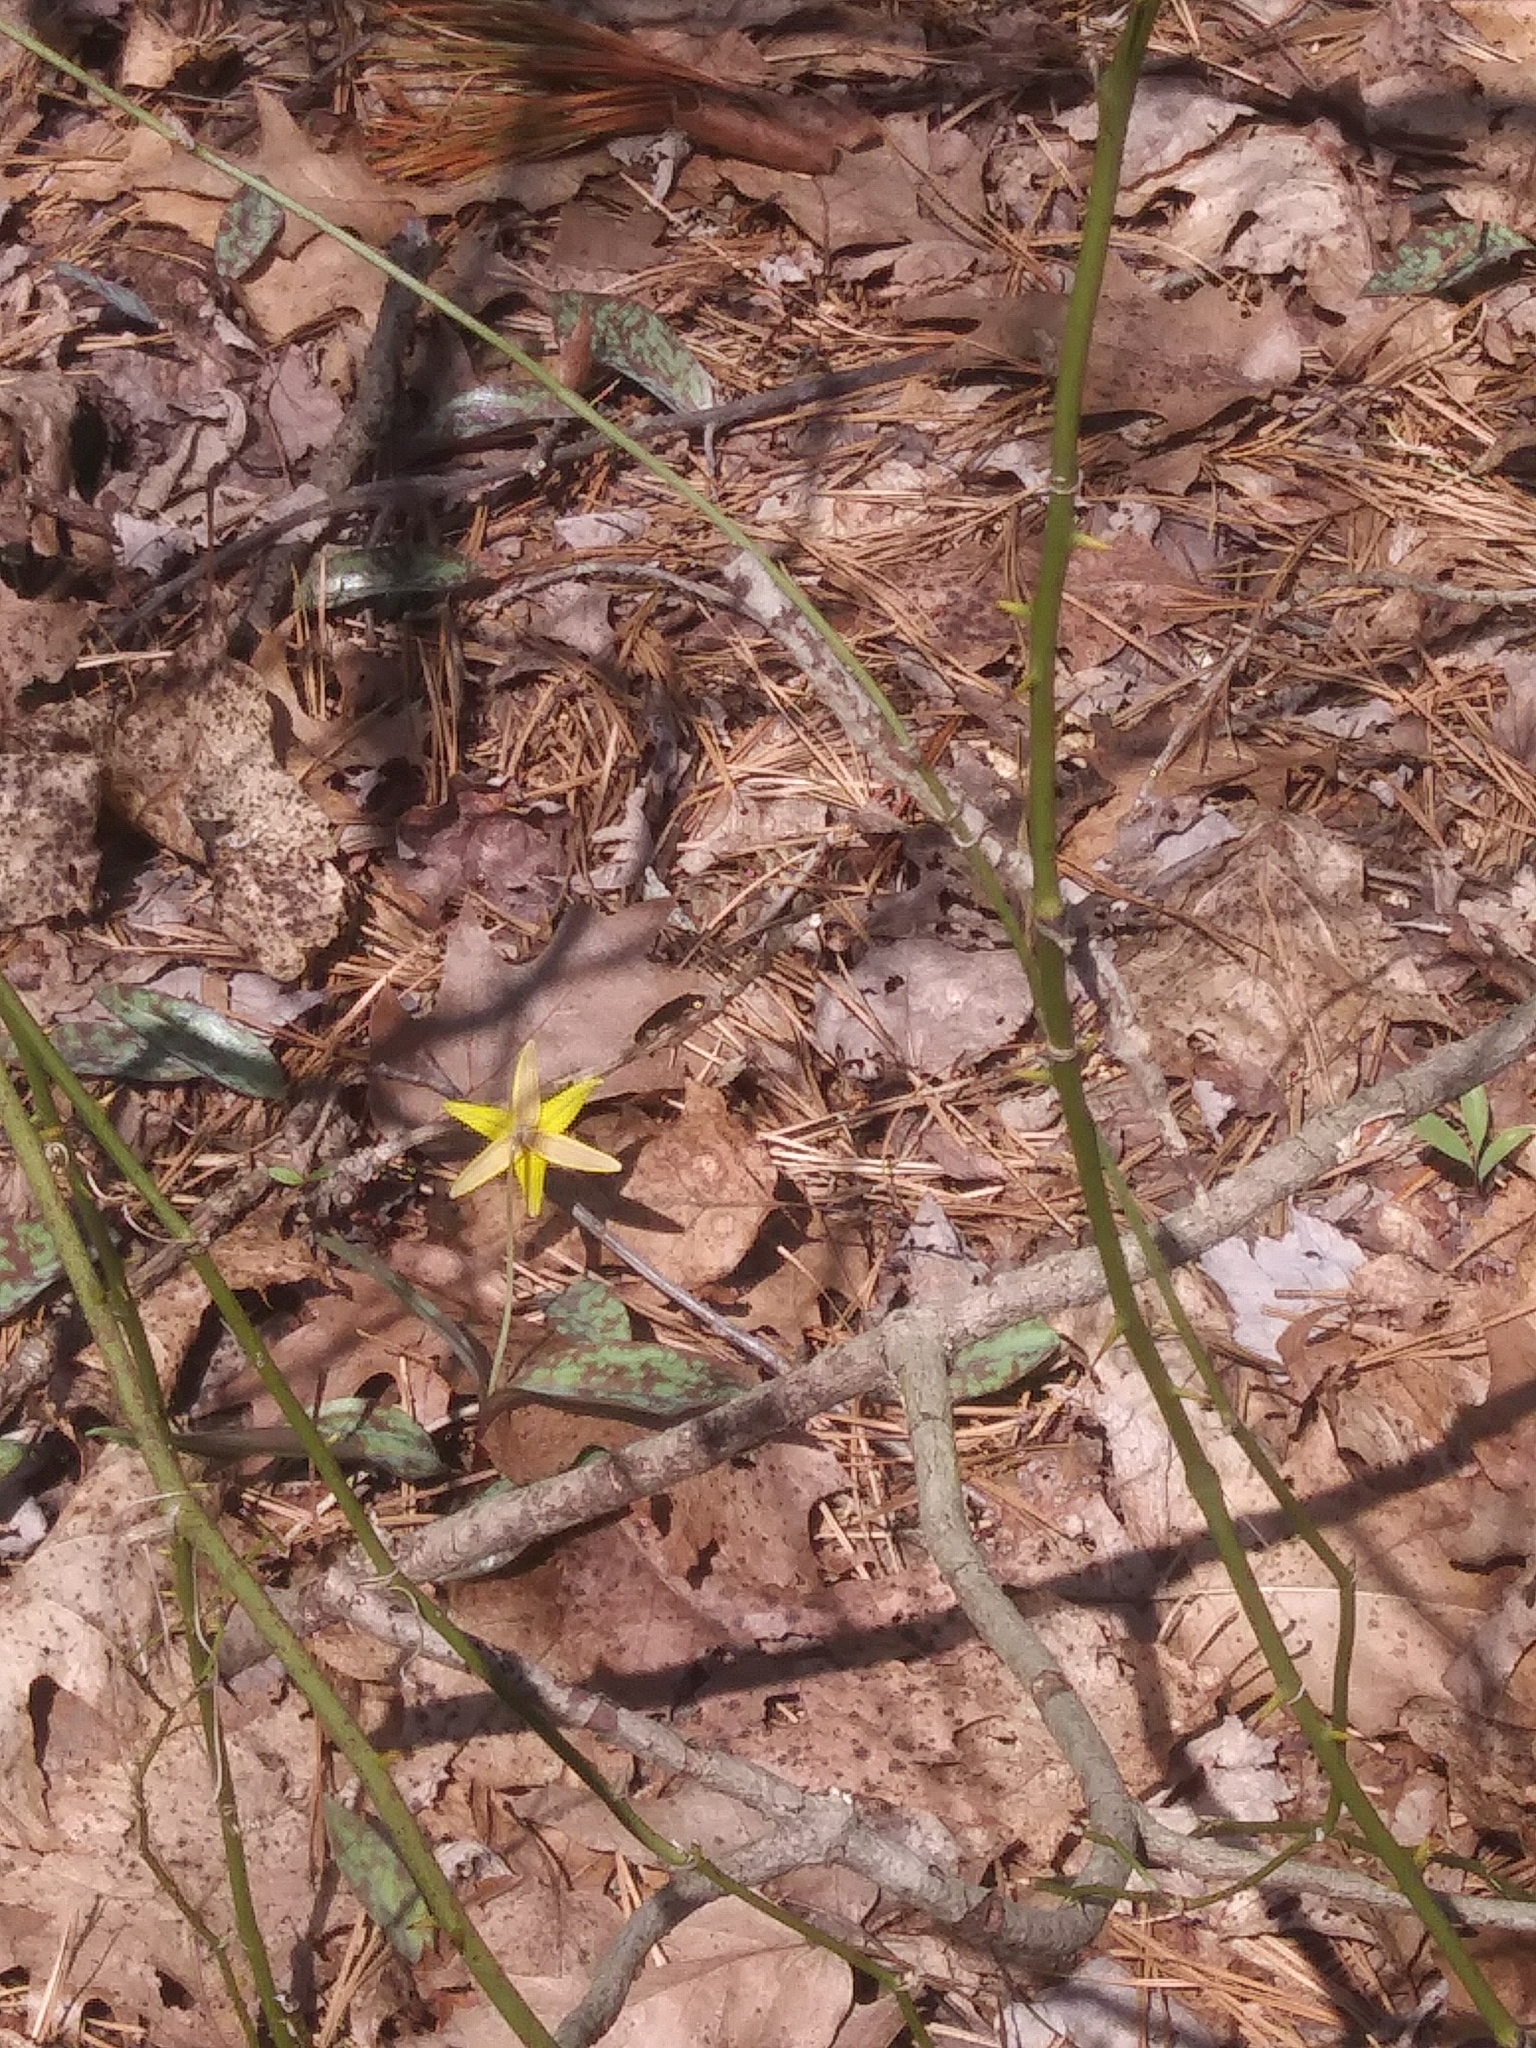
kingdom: Plantae
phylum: Tracheophyta
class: Liliopsida
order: Liliales
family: Liliaceae
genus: Erythronium
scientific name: Erythronium americanum
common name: Yellow adder's-tongue
